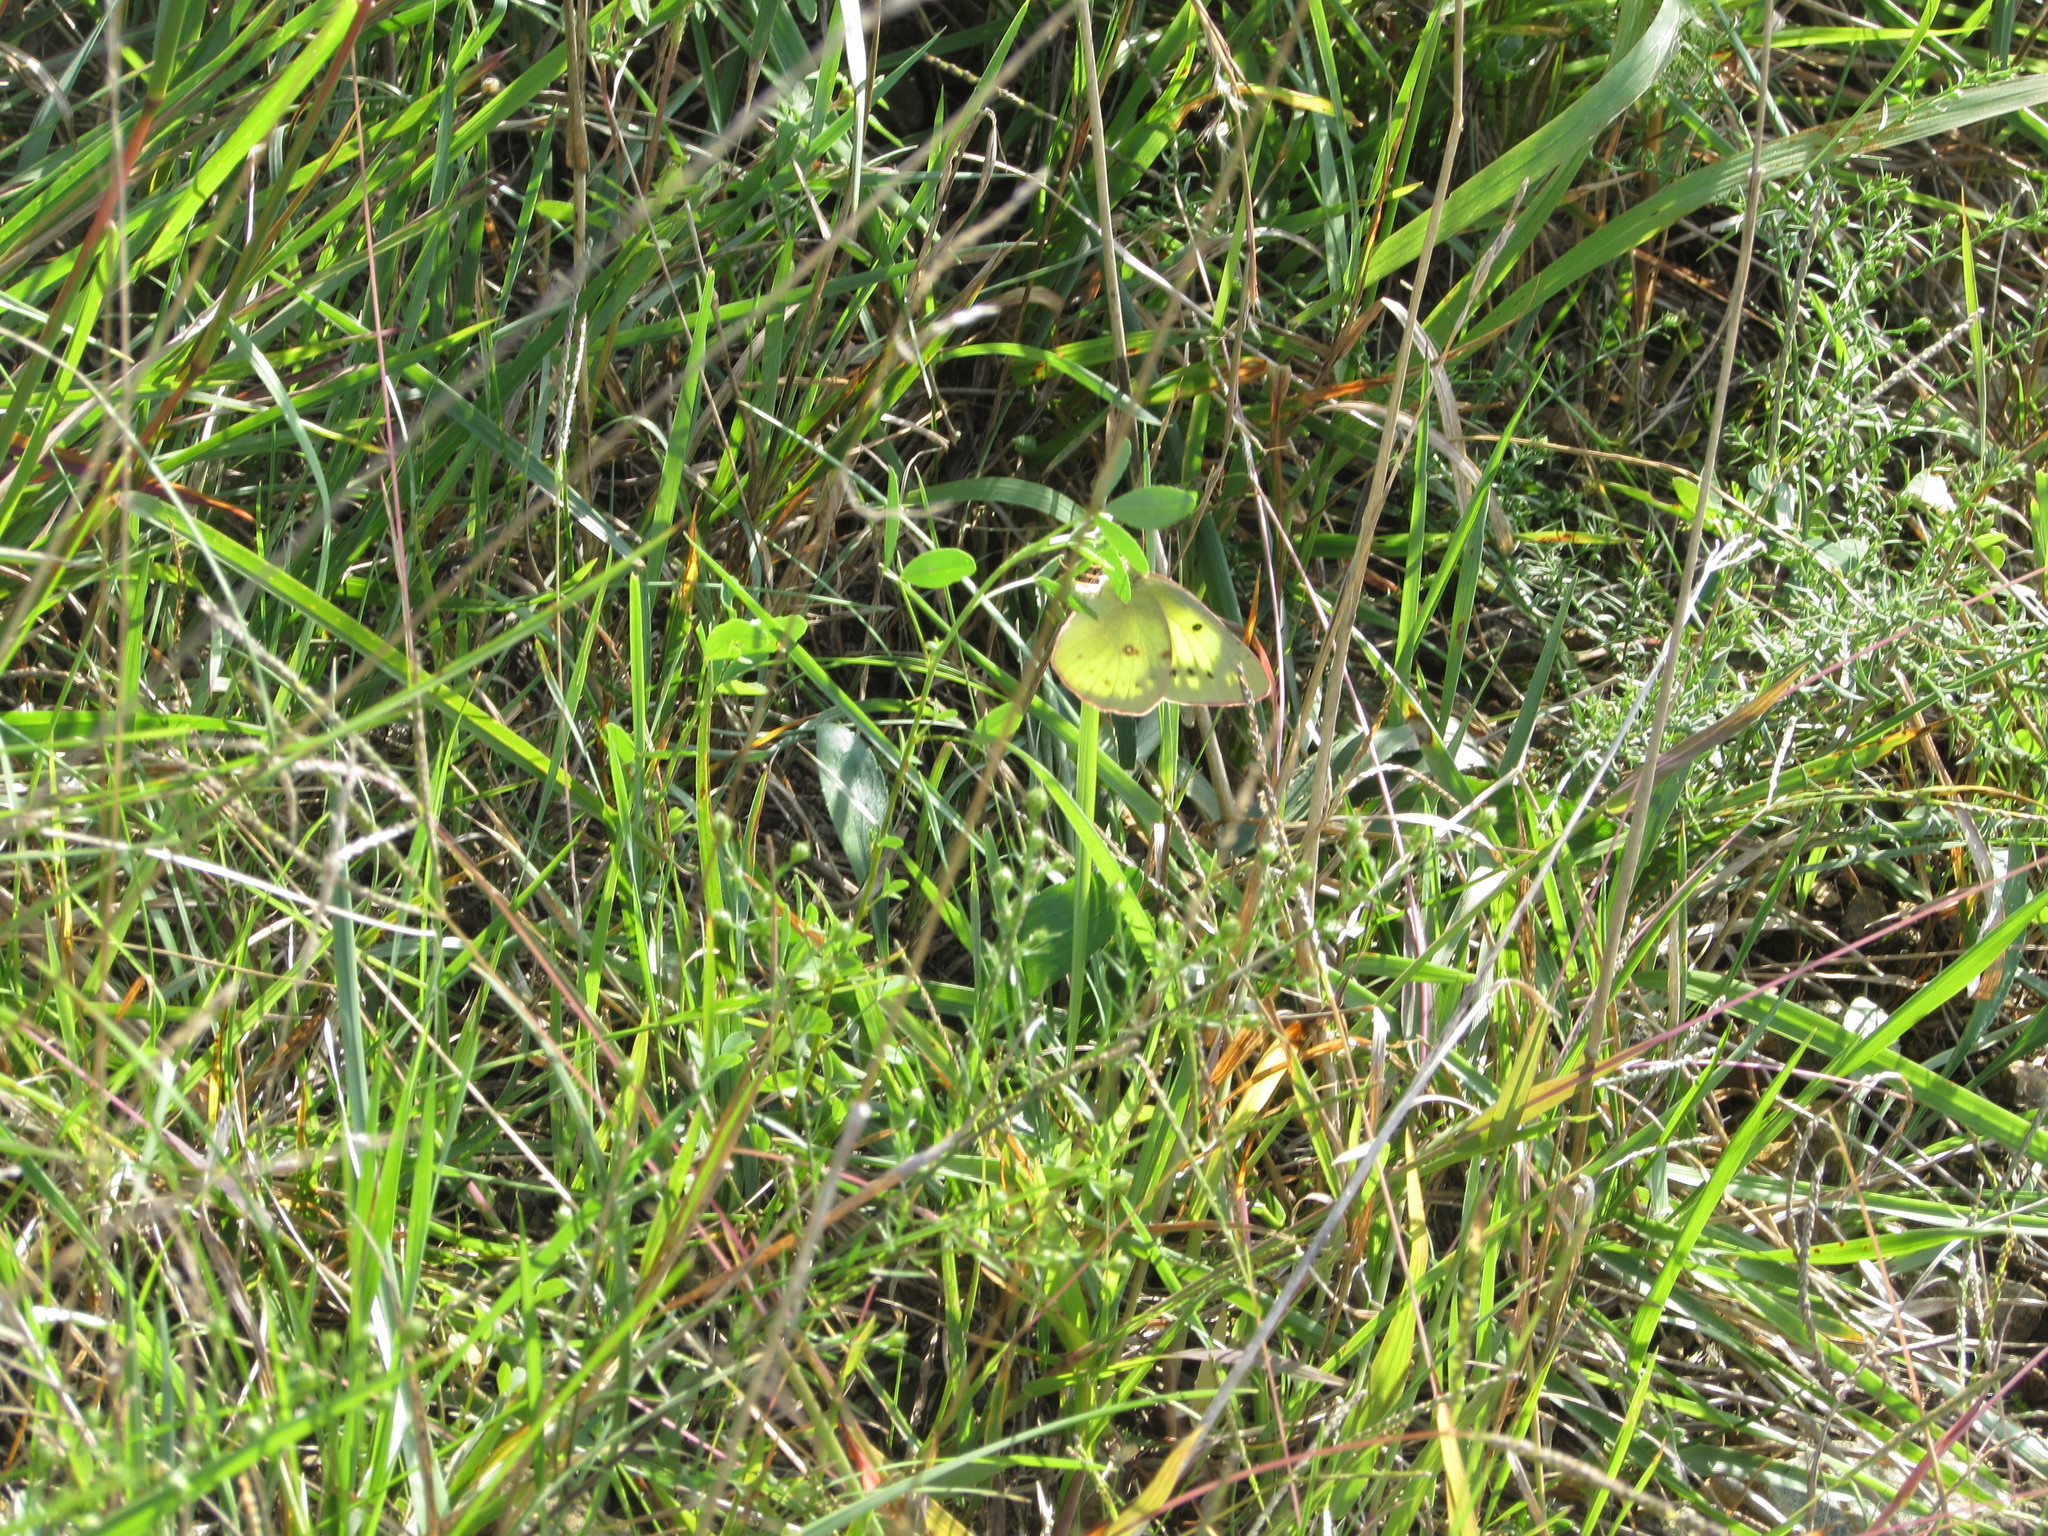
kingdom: Animalia
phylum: Arthropoda
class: Insecta
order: Lepidoptera
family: Pieridae
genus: Colias
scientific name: Colias philodice
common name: Clouded sulphur
